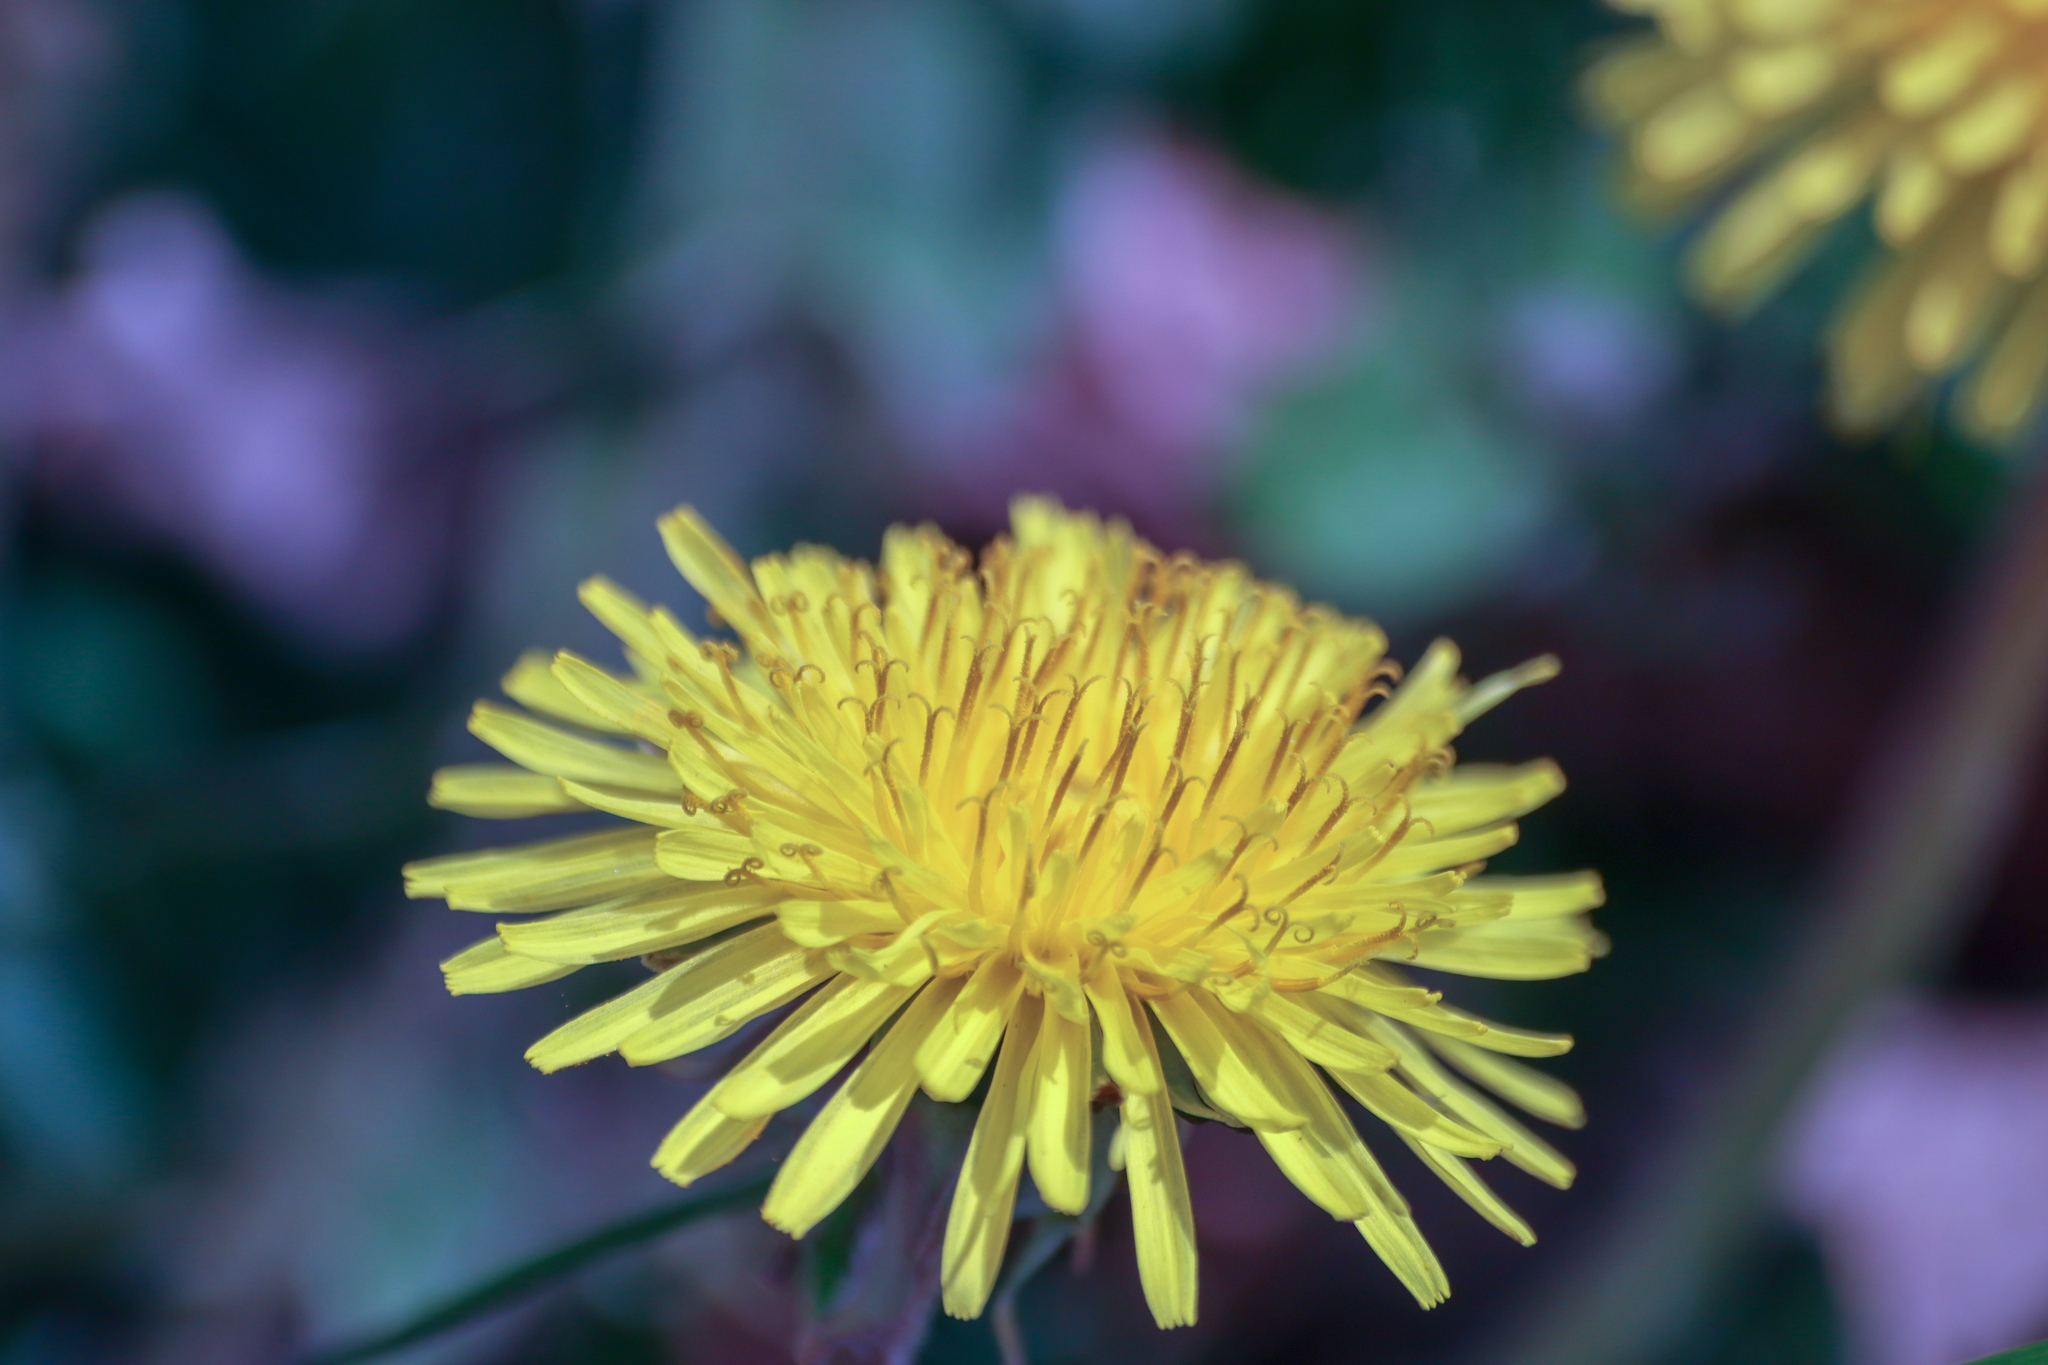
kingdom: Plantae
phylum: Tracheophyta
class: Magnoliopsida
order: Asterales
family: Asteraceae
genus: Taraxacum
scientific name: Taraxacum officinale
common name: Common dandelion
